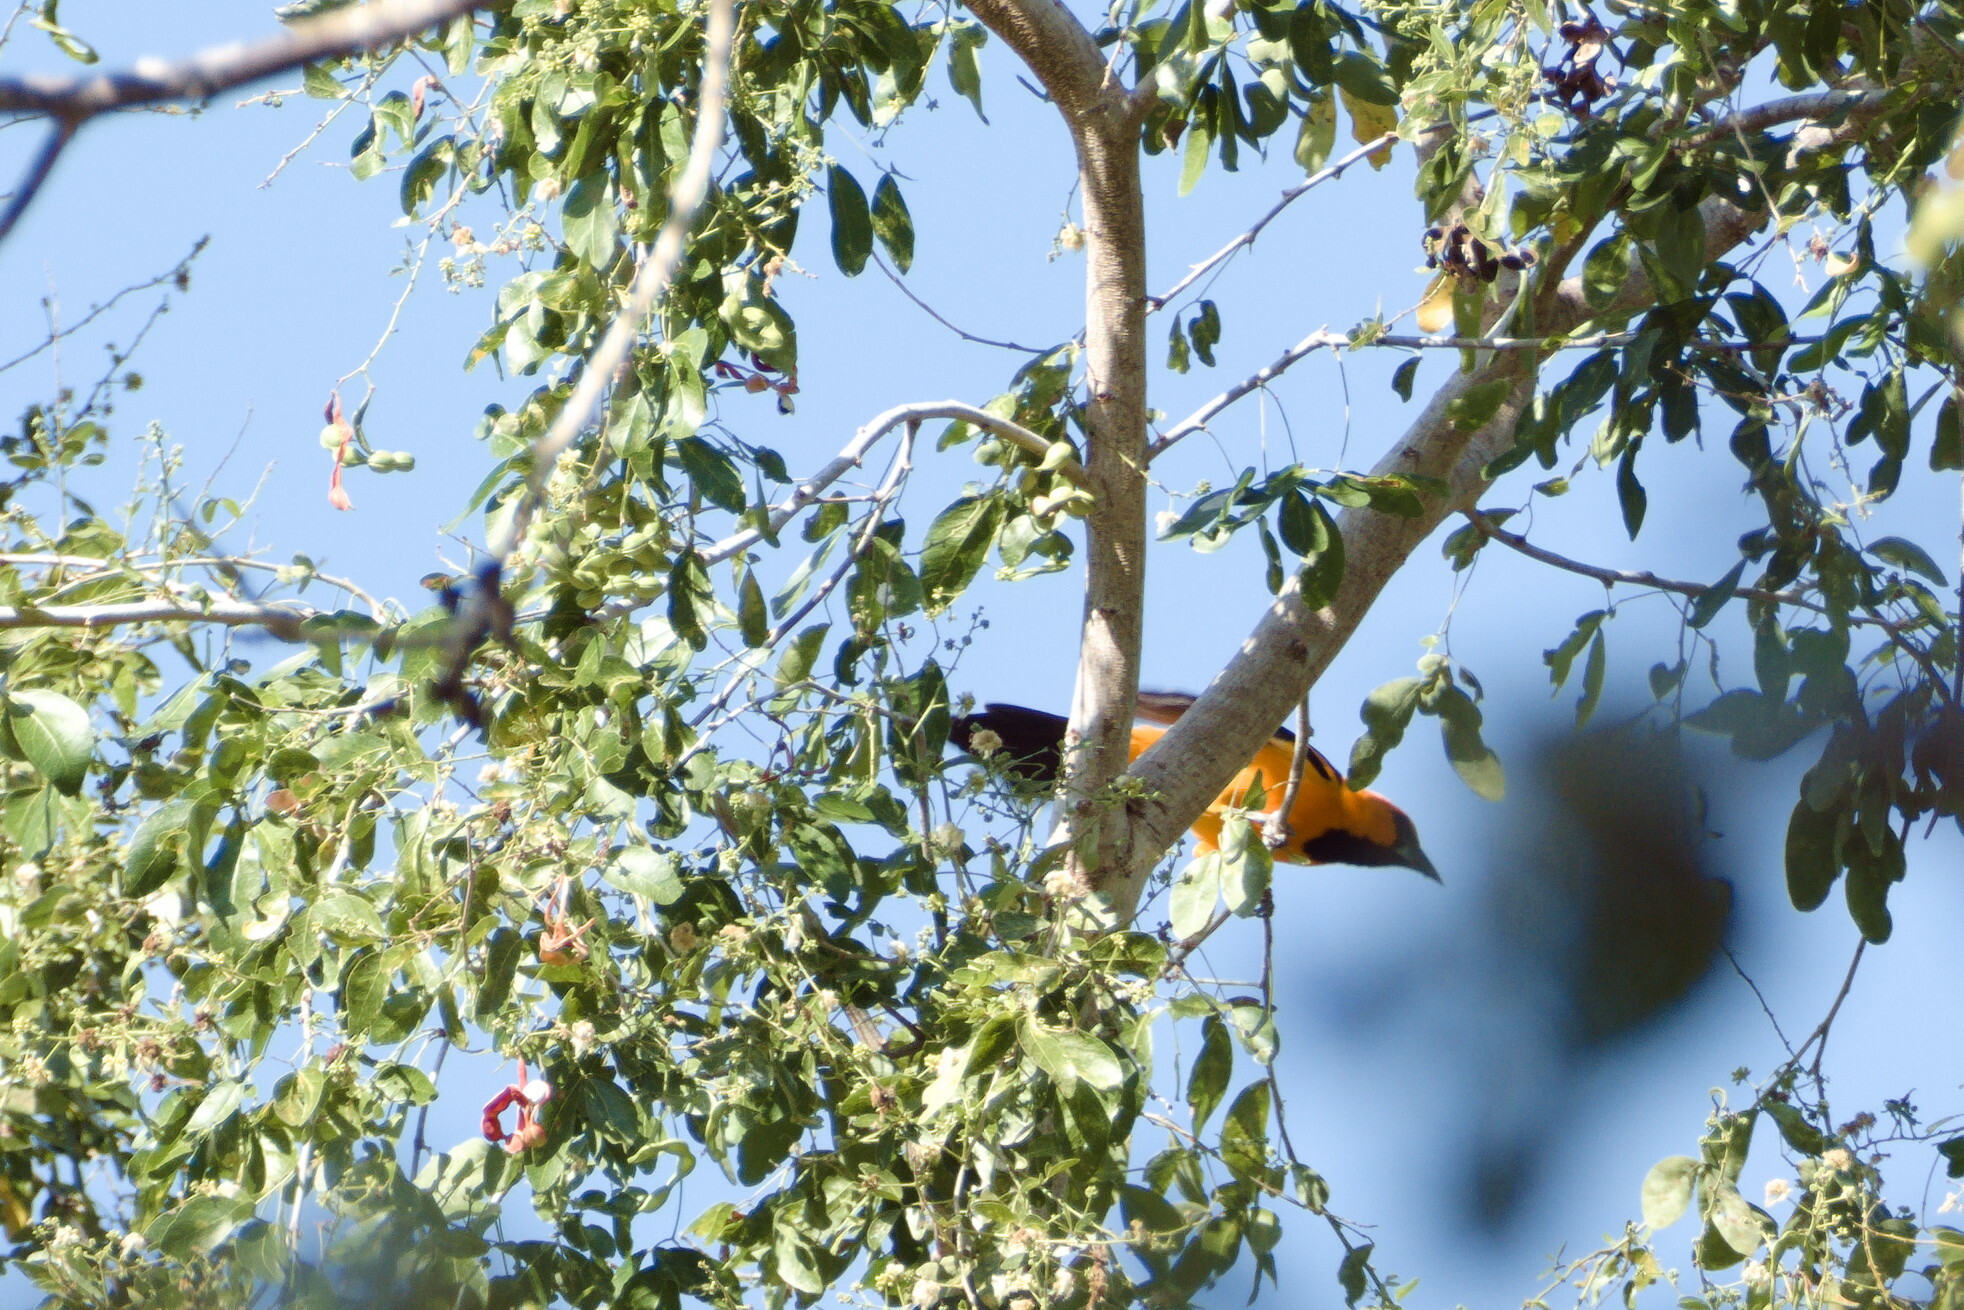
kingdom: Animalia
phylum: Chordata
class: Aves
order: Passeriformes
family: Icteridae
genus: Icterus
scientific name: Icterus gularis
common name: Altamira oriole
